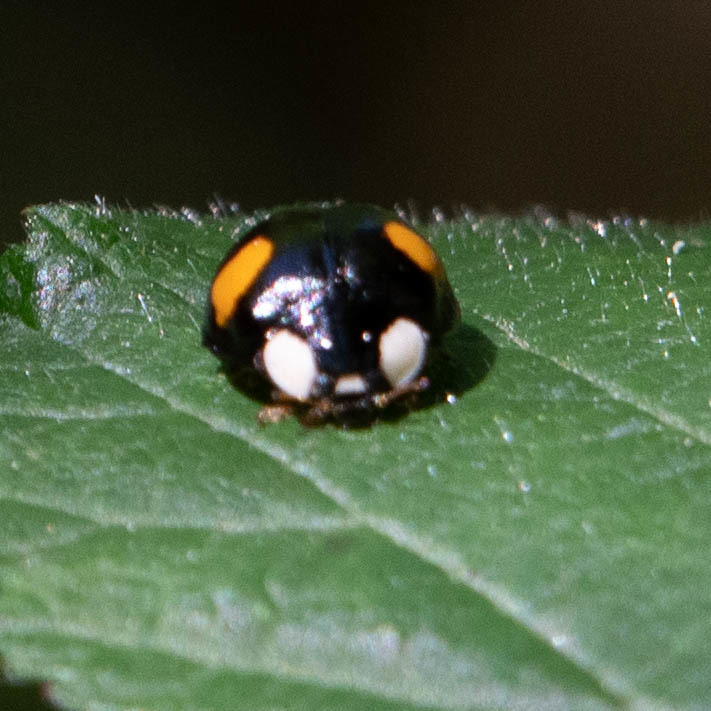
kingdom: Animalia
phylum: Arthropoda
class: Insecta
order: Coleoptera
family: Coccinellidae
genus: Harmonia
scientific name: Harmonia axyridis
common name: Harlequin ladybird
